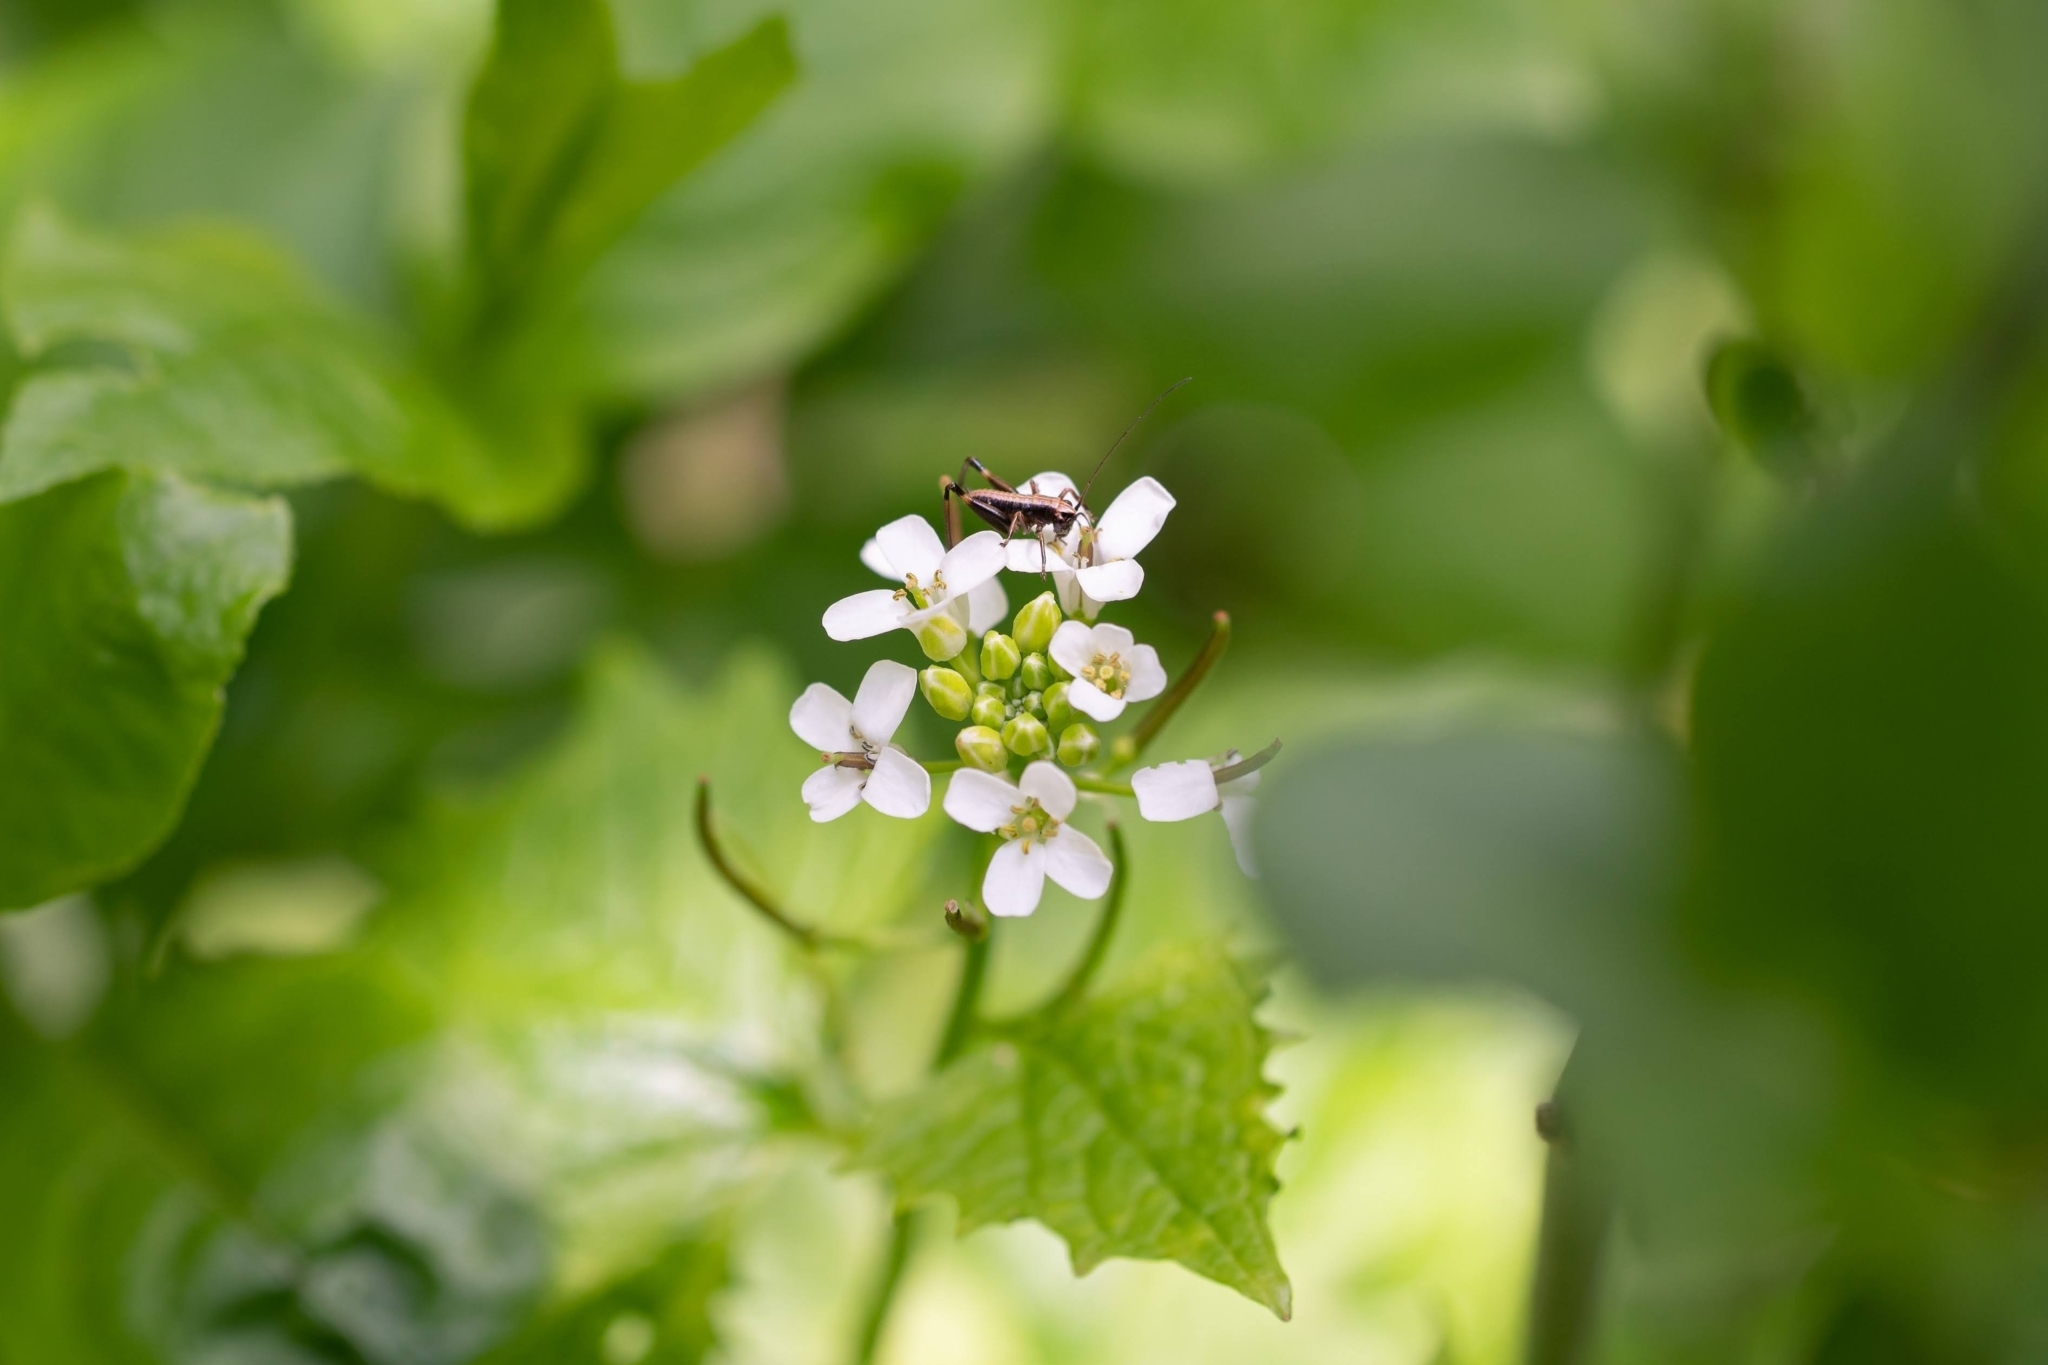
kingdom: Plantae
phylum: Tracheophyta
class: Magnoliopsida
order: Brassicales
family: Brassicaceae
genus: Alliaria
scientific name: Alliaria petiolata
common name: Garlic mustard
